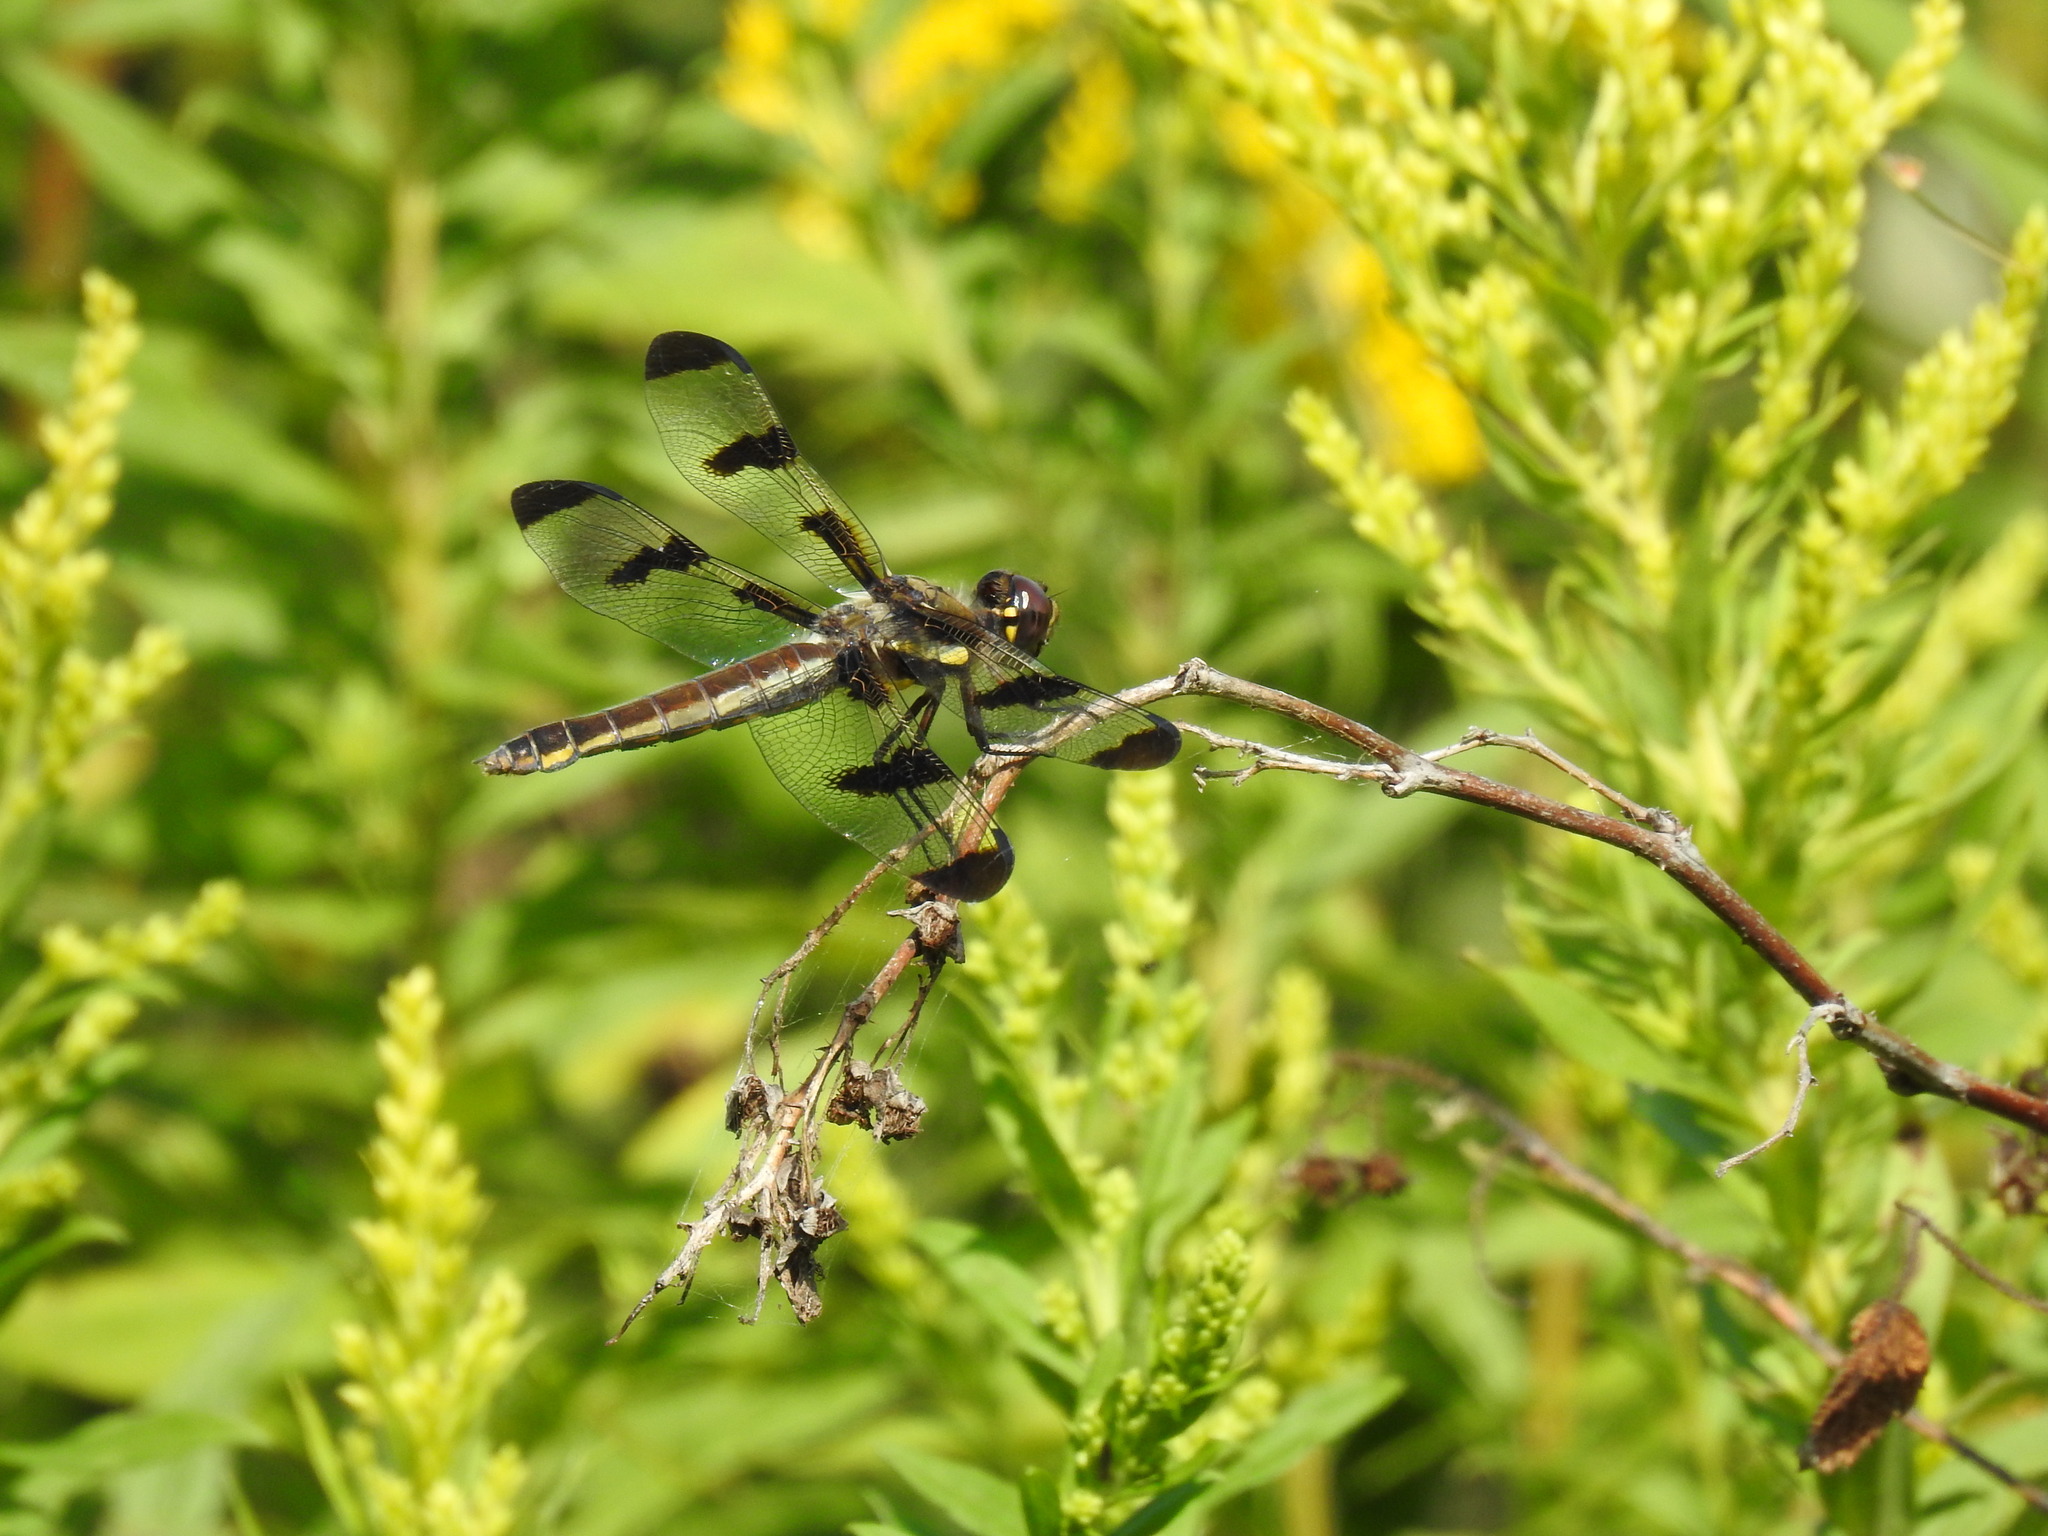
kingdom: Animalia
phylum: Arthropoda
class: Insecta
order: Odonata
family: Libellulidae
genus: Libellula
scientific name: Libellula pulchella
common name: Twelve-spotted skimmer
